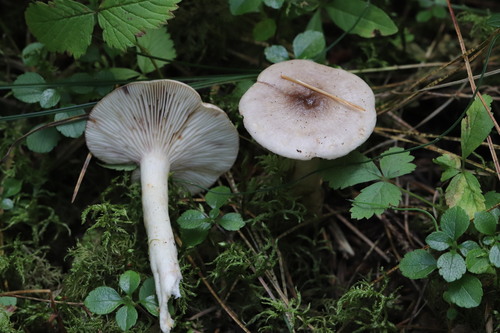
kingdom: Fungi
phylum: Basidiomycota
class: Agaricomycetes
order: Russulales
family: Russulaceae
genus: Lactarius
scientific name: Lactarius uvidus
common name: Shiner milkcap
